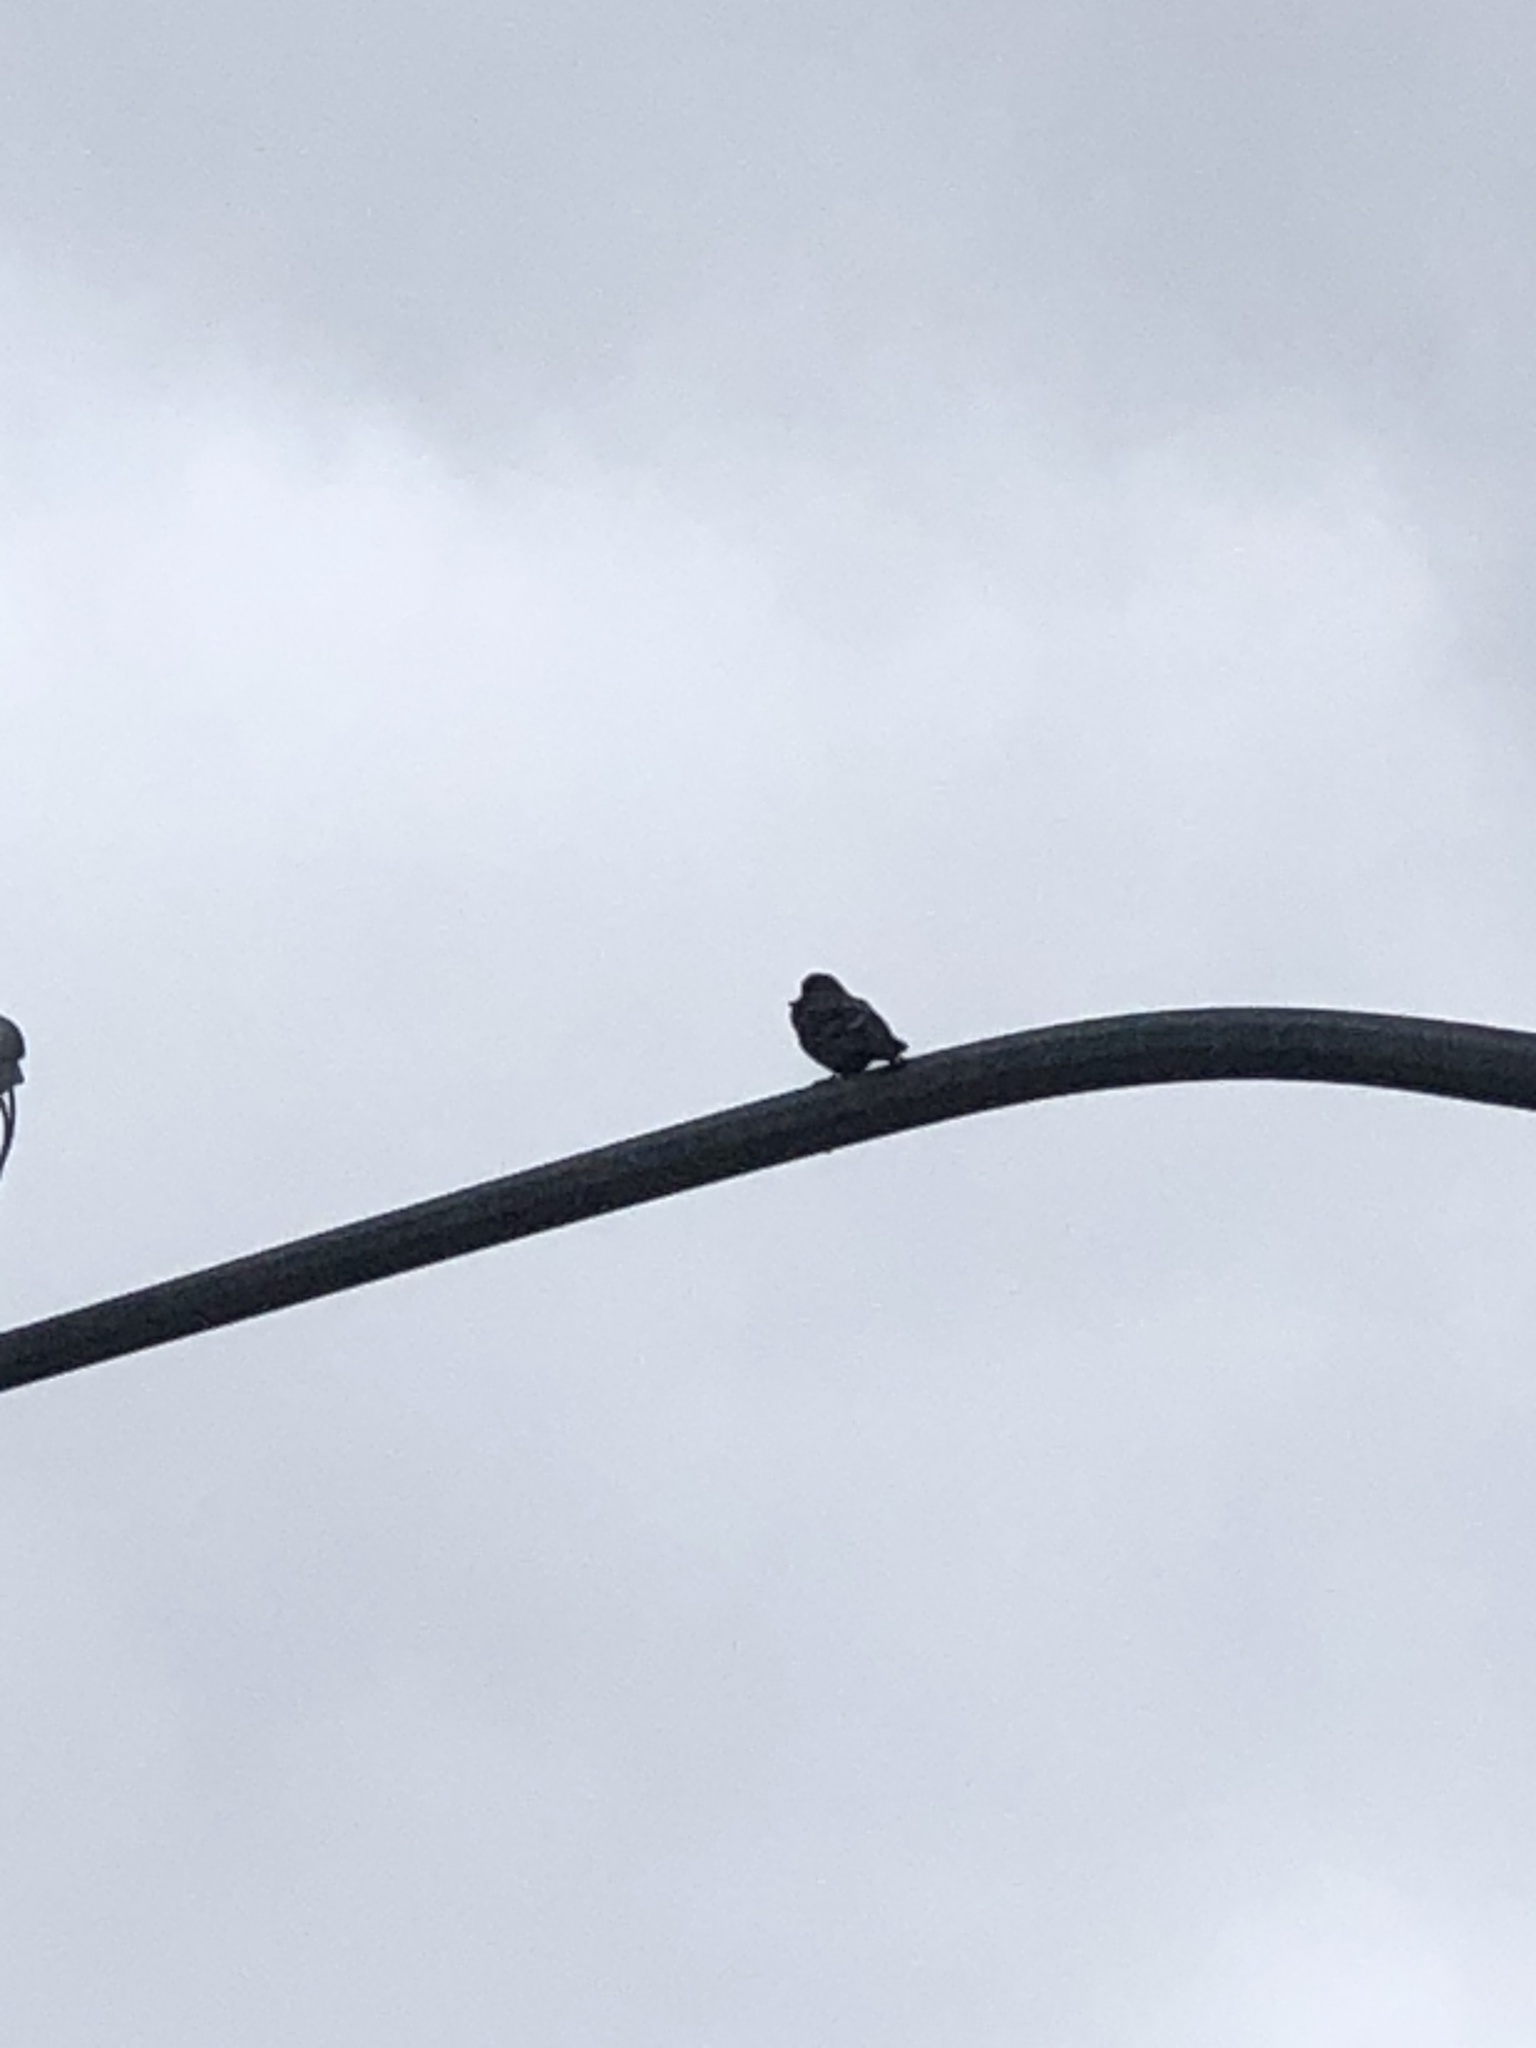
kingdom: Animalia
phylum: Chordata
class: Aves
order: Columbiformes
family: Columbidae
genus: Columba
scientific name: Columba livia
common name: Rock pigeon
